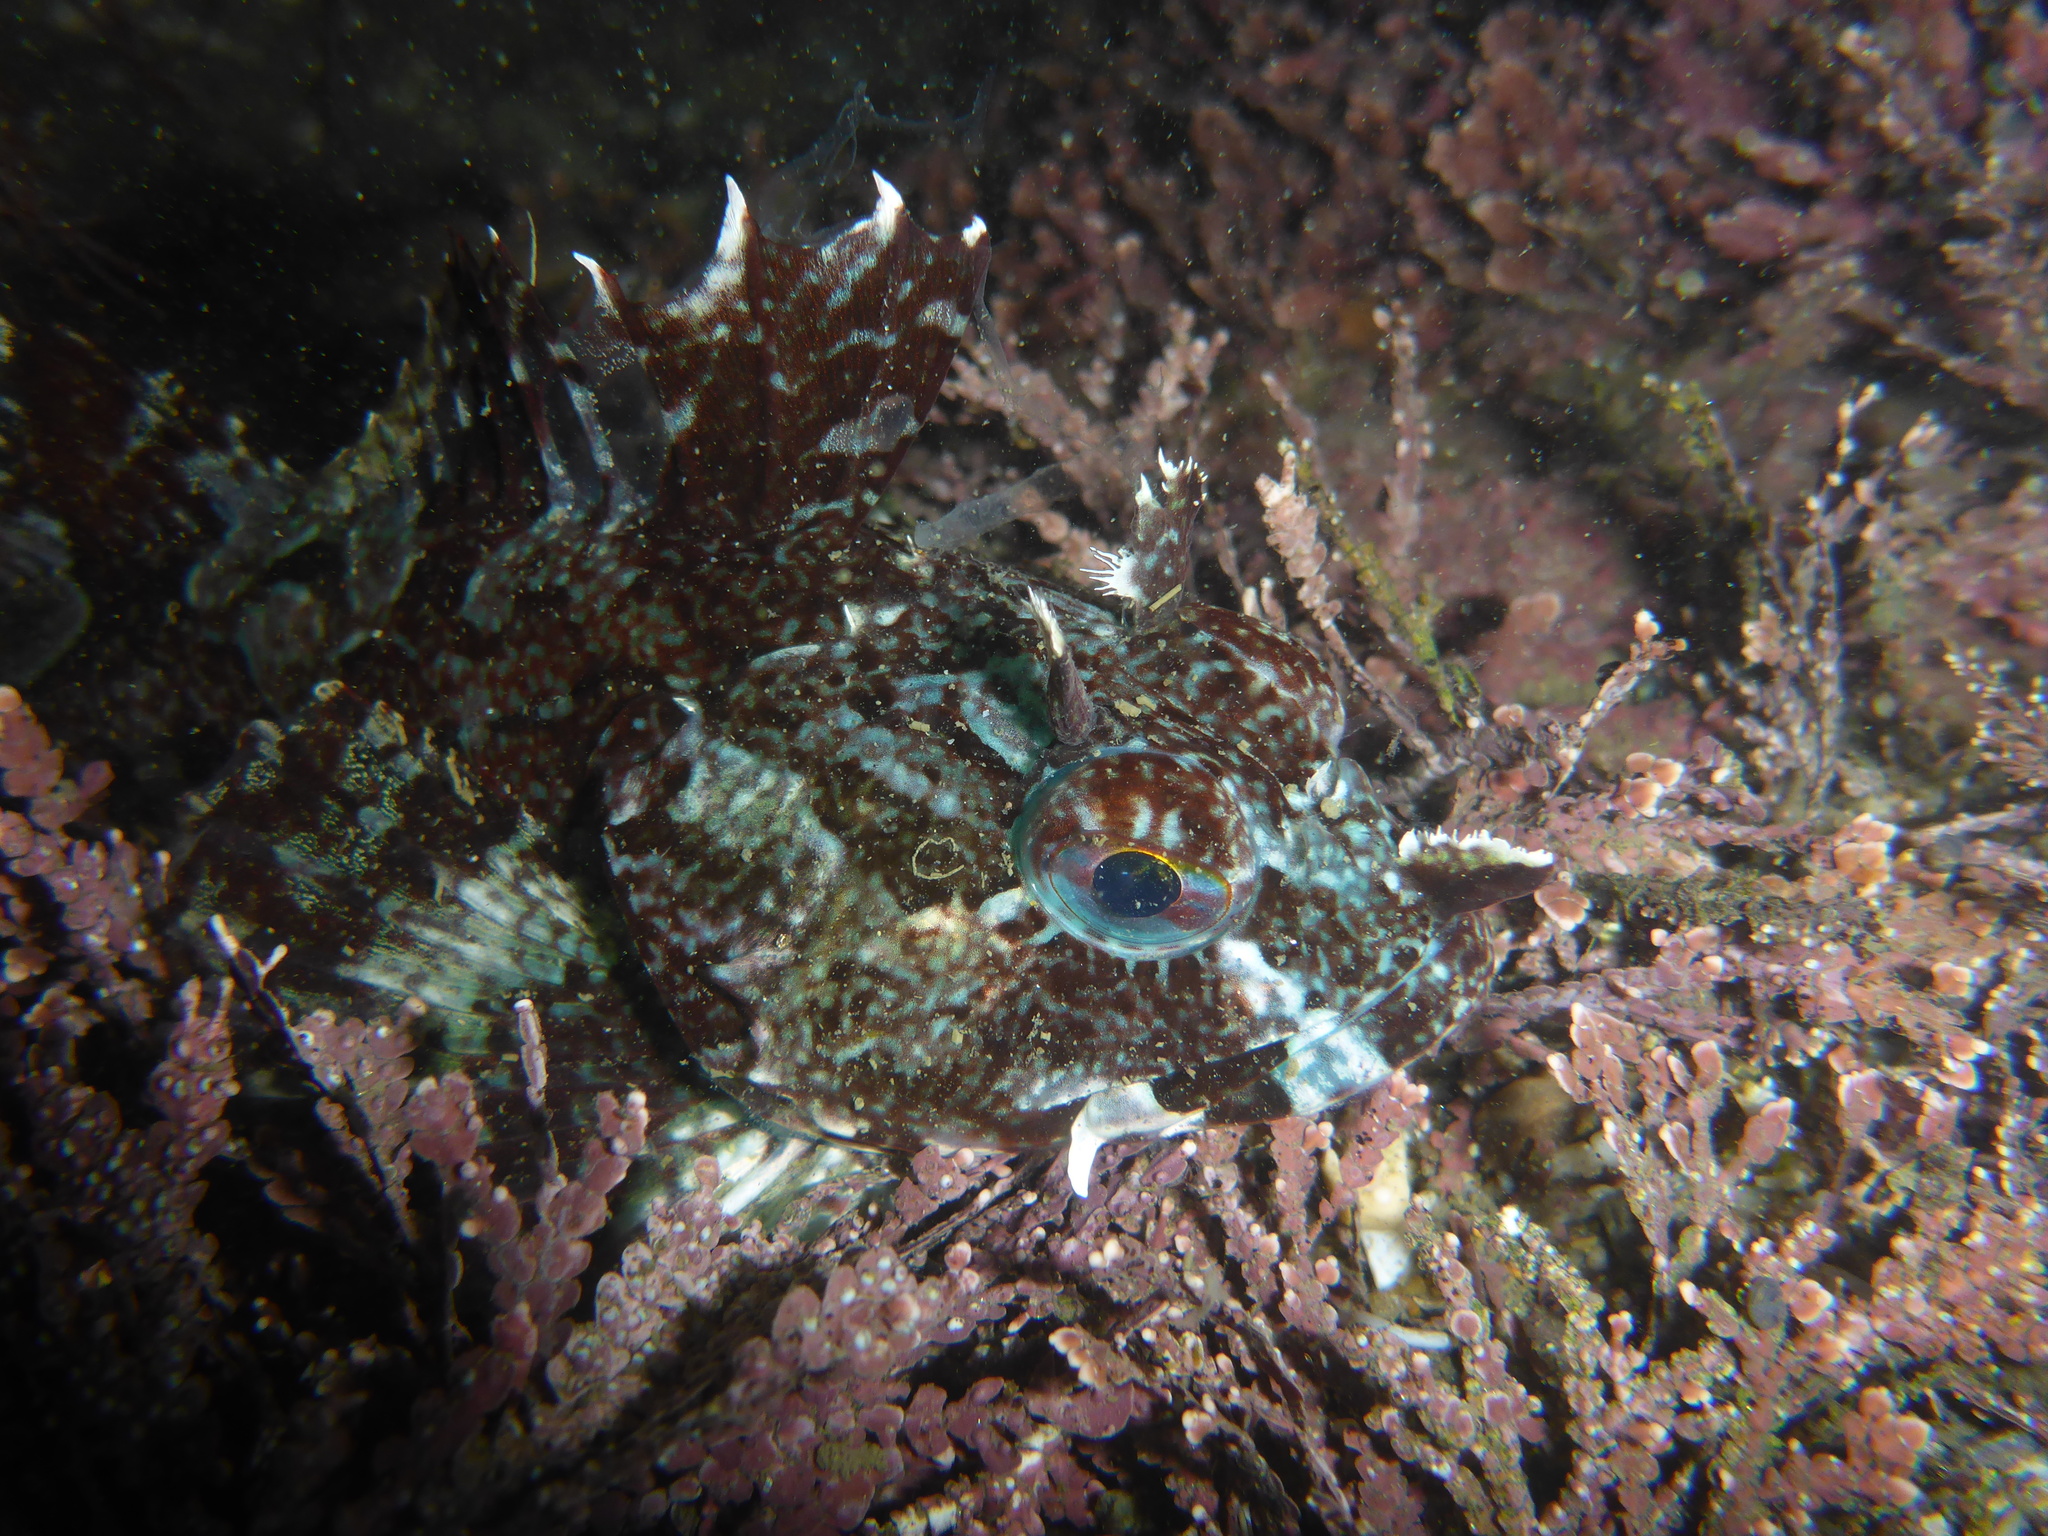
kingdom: Animalia
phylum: Chordata
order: Scorpaeniformes
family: Cottidae
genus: Scorpaenichthys
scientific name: Scorpaenichthys marmoratus
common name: Cabezon
